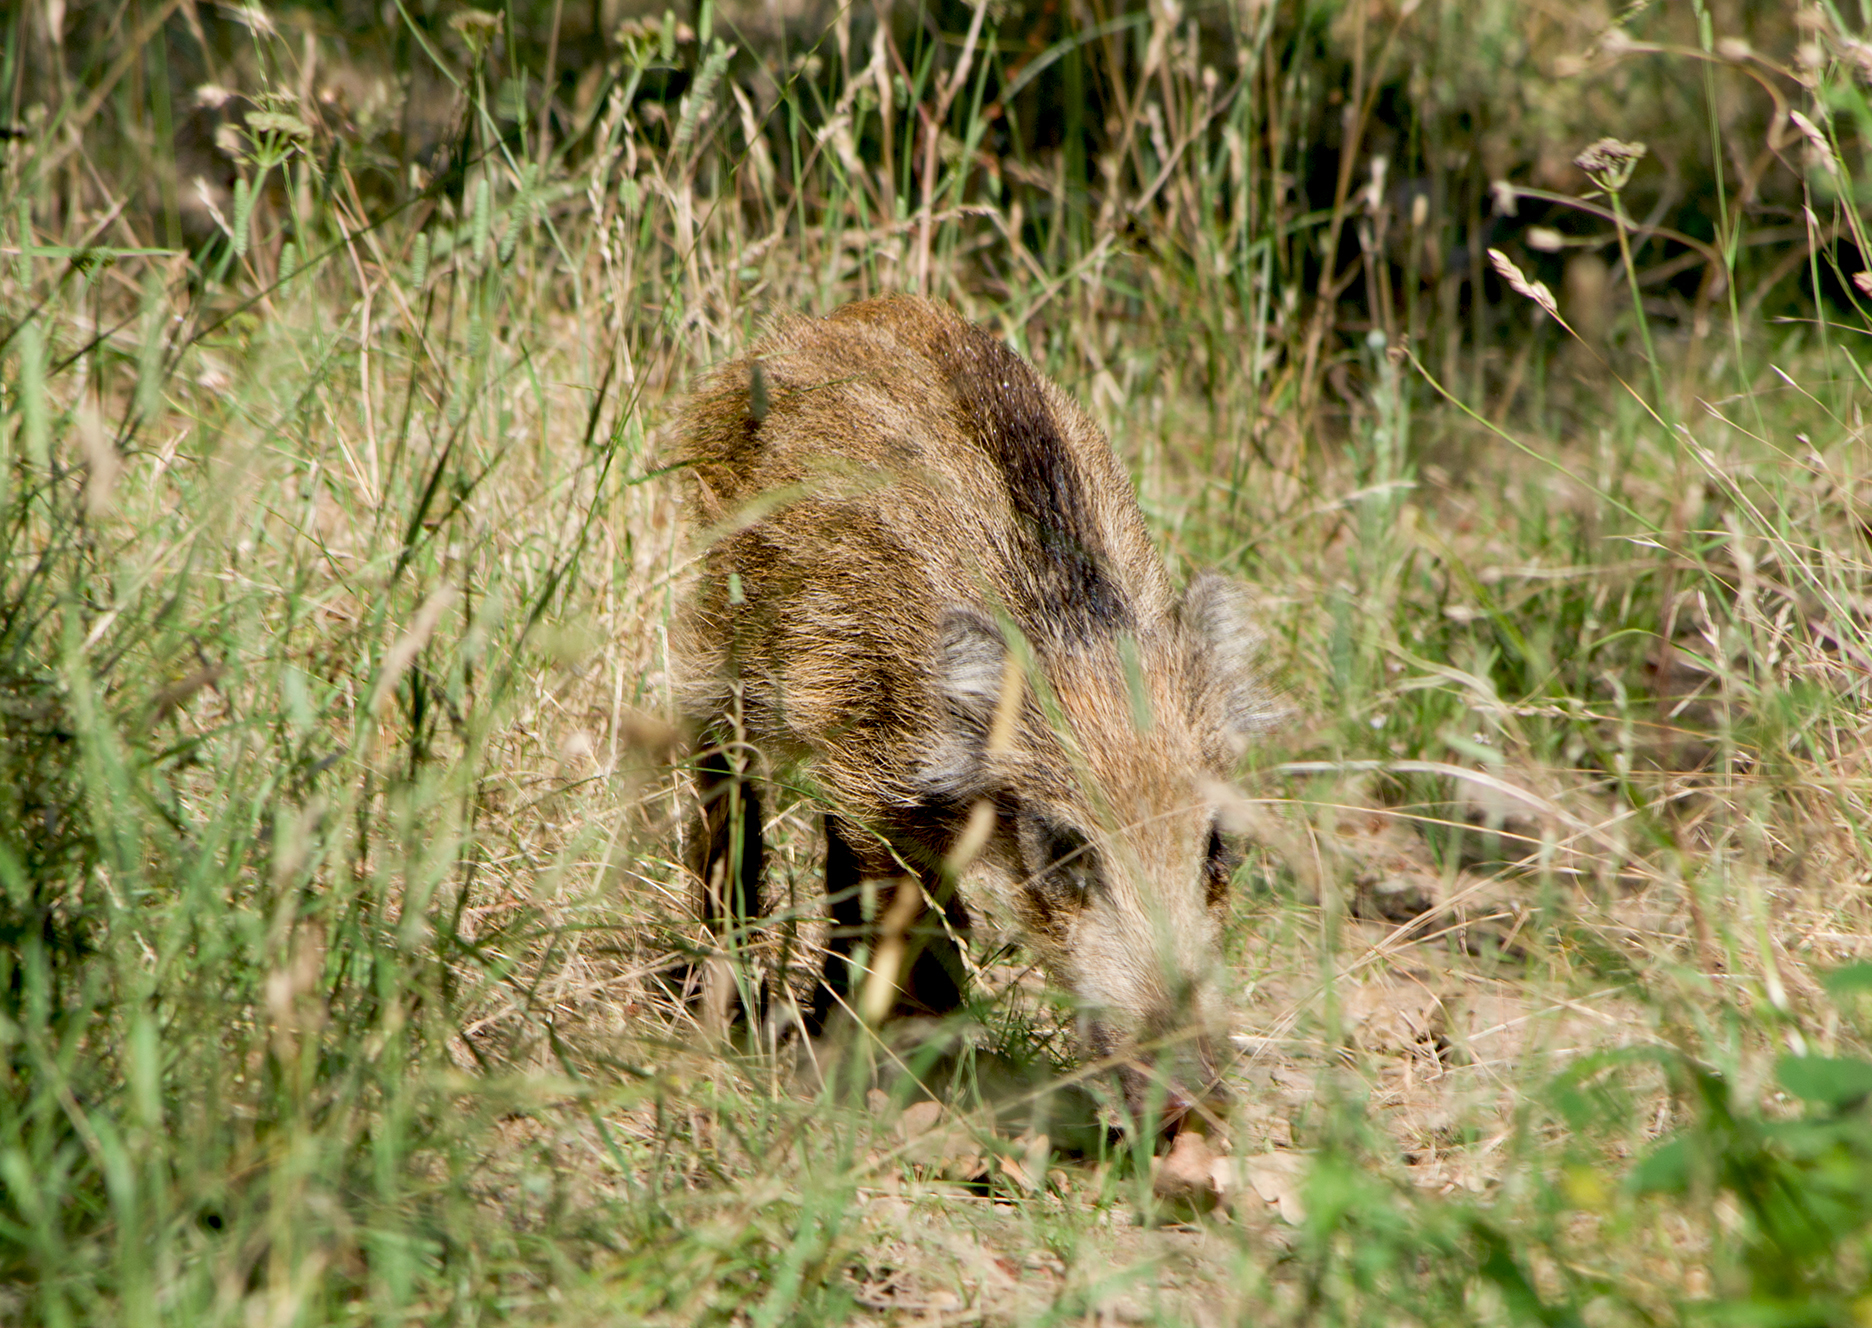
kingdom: Animalia
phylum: Chordata
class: Mammalia
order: Artiodactyla
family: Suidae
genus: Sus
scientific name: Sus scrofa
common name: Wild boar
